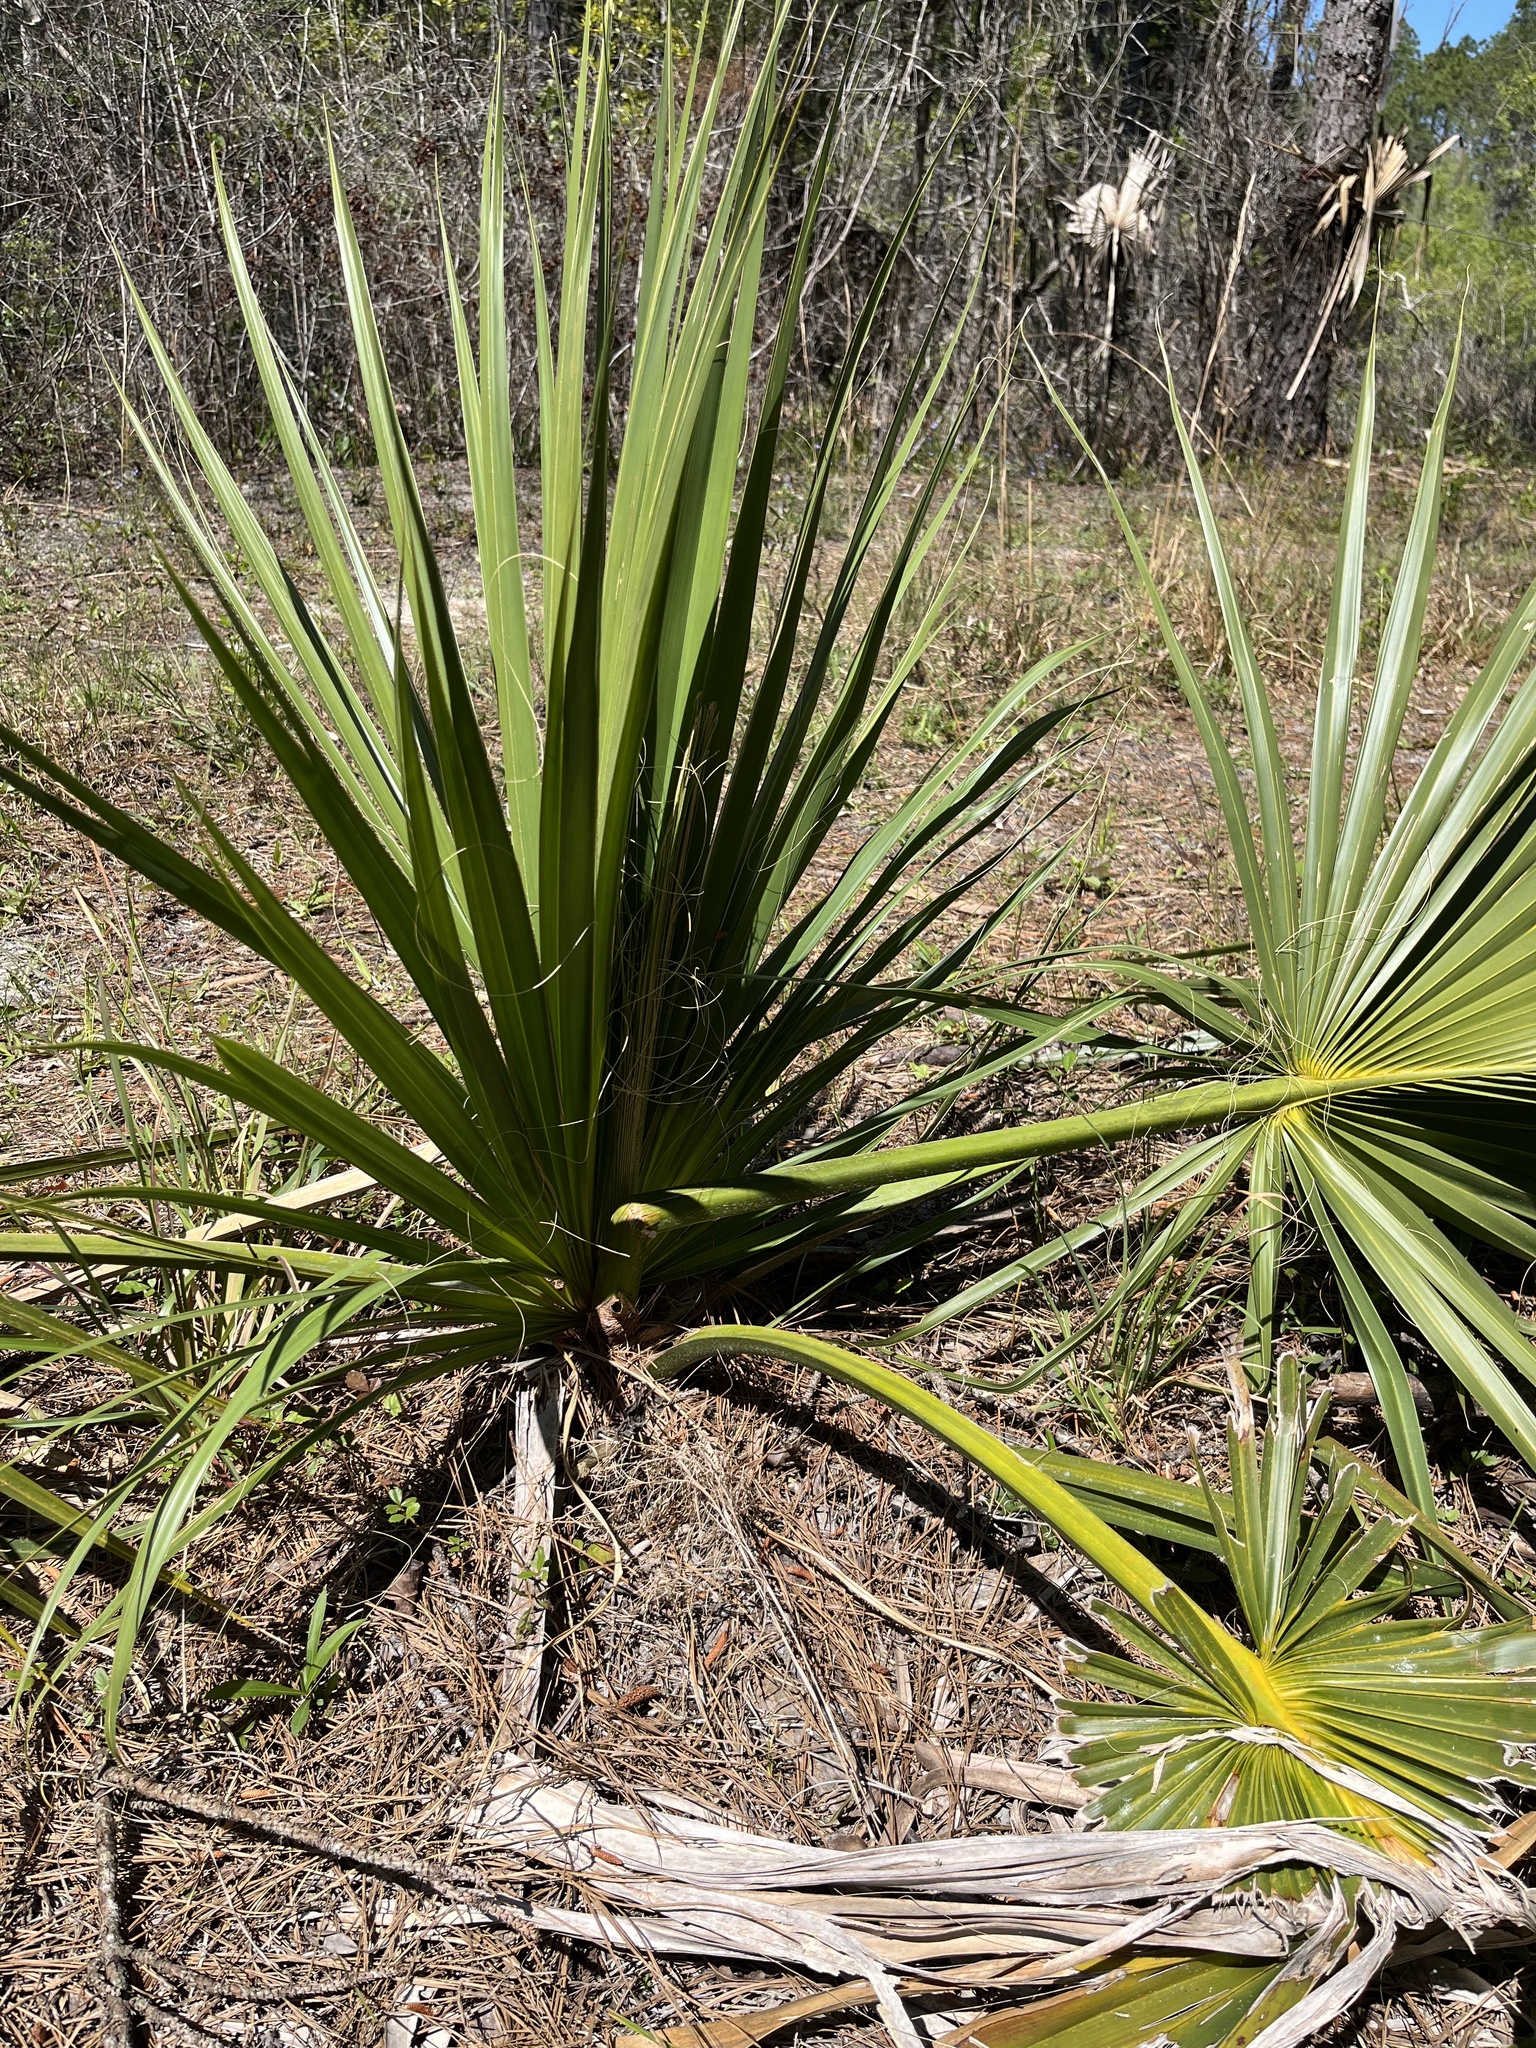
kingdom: Plantae
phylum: Tracheophyta
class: Liliopsida
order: Arecales
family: Arecaceae
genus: Sabal
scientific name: Sabal palmetto
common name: Blue palmetto
